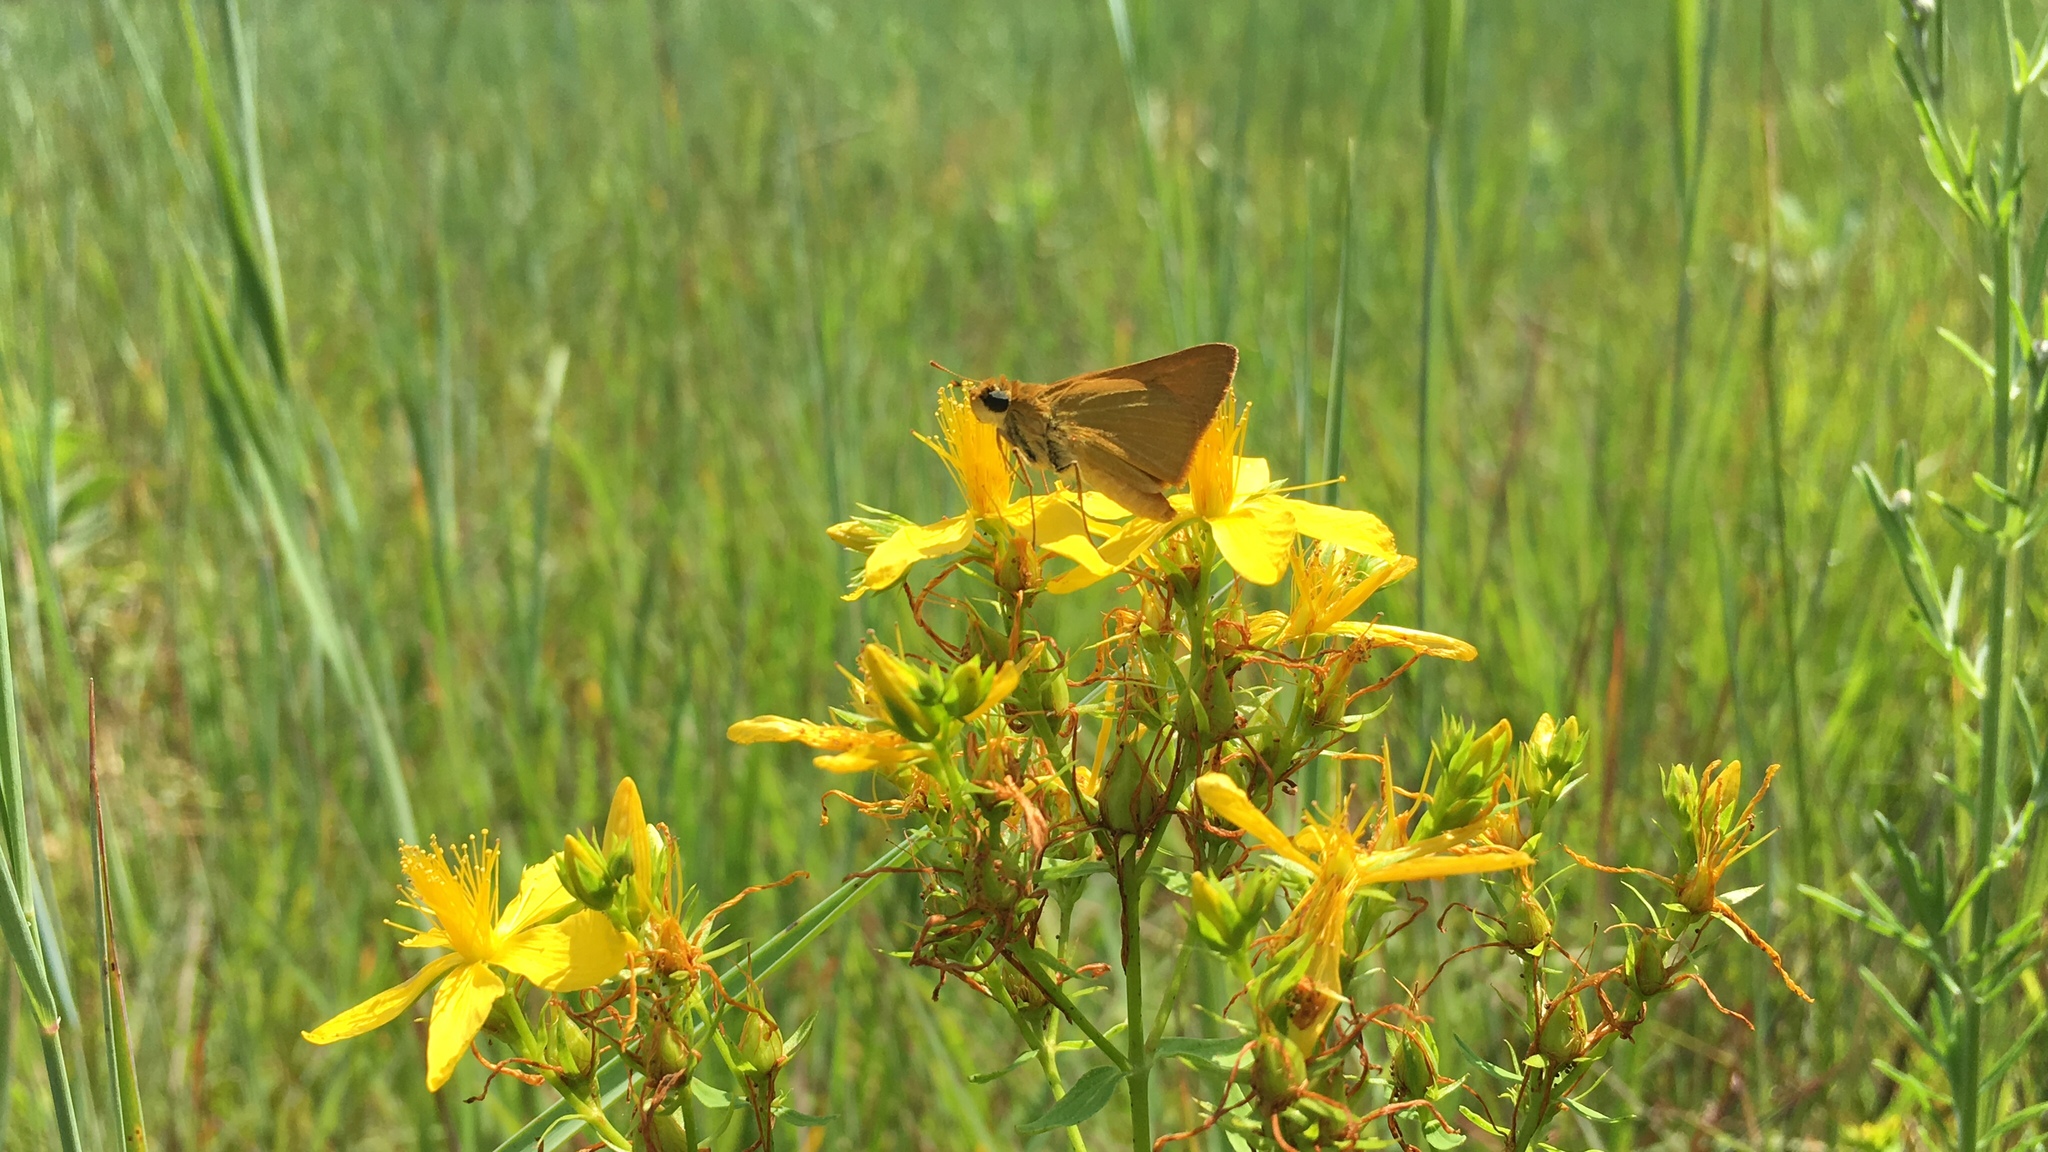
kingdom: Animalia
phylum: Arthropoda
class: Insecta
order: Lepidoptera
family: Hesperiidae
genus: Atrytone
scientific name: Atrytone delaware
